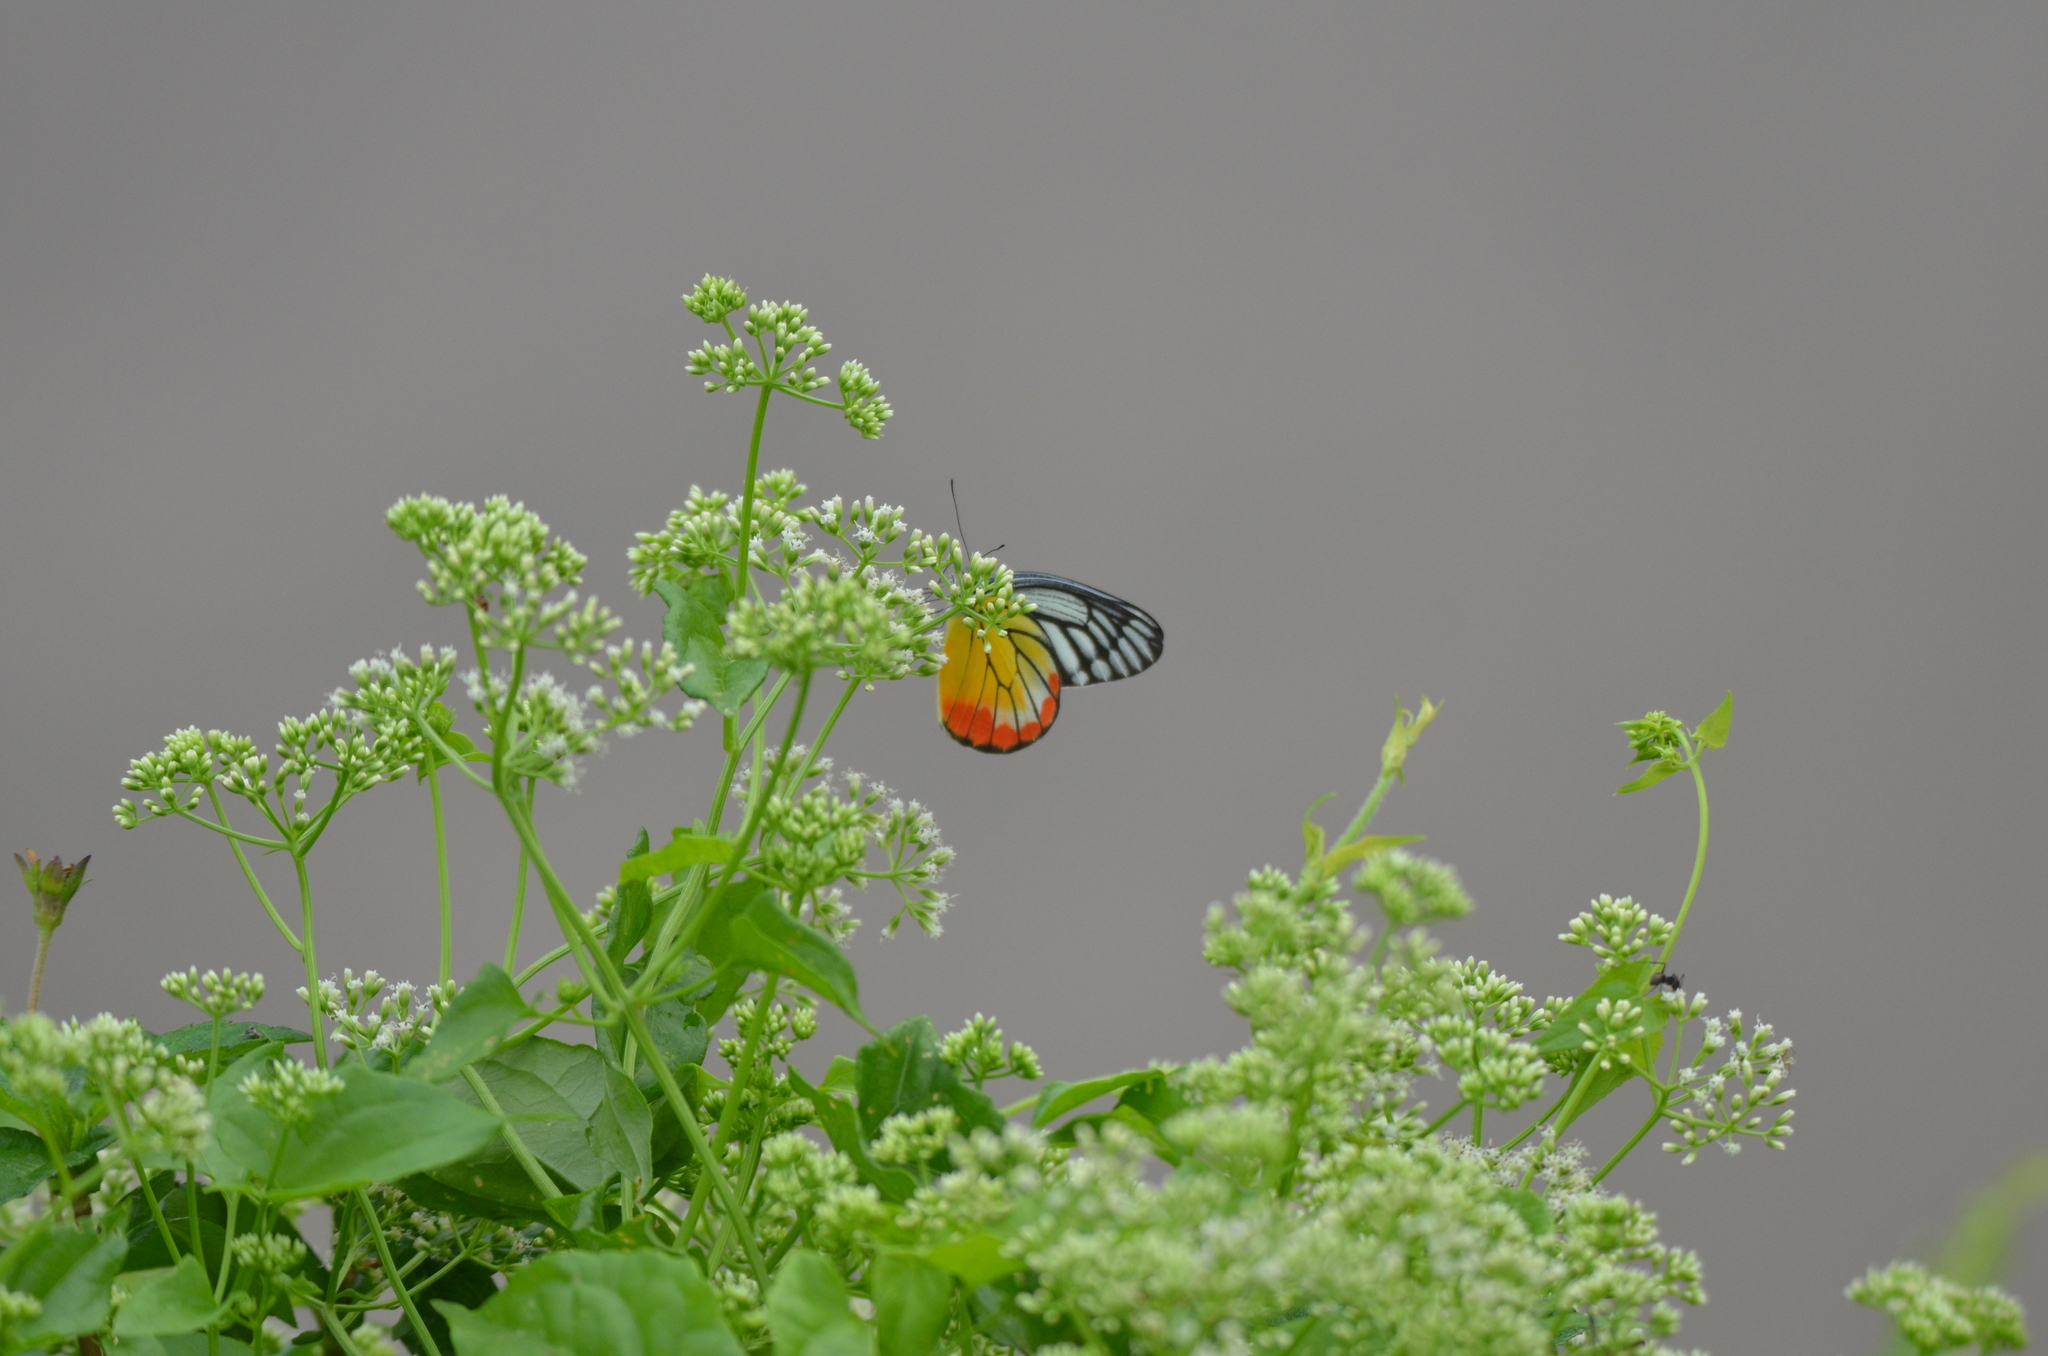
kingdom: Animalia
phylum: Arthropoda
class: Insecta
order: Lepidoptera
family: Pieridae
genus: Delias
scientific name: Delias hyparete
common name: Painted jezebel
